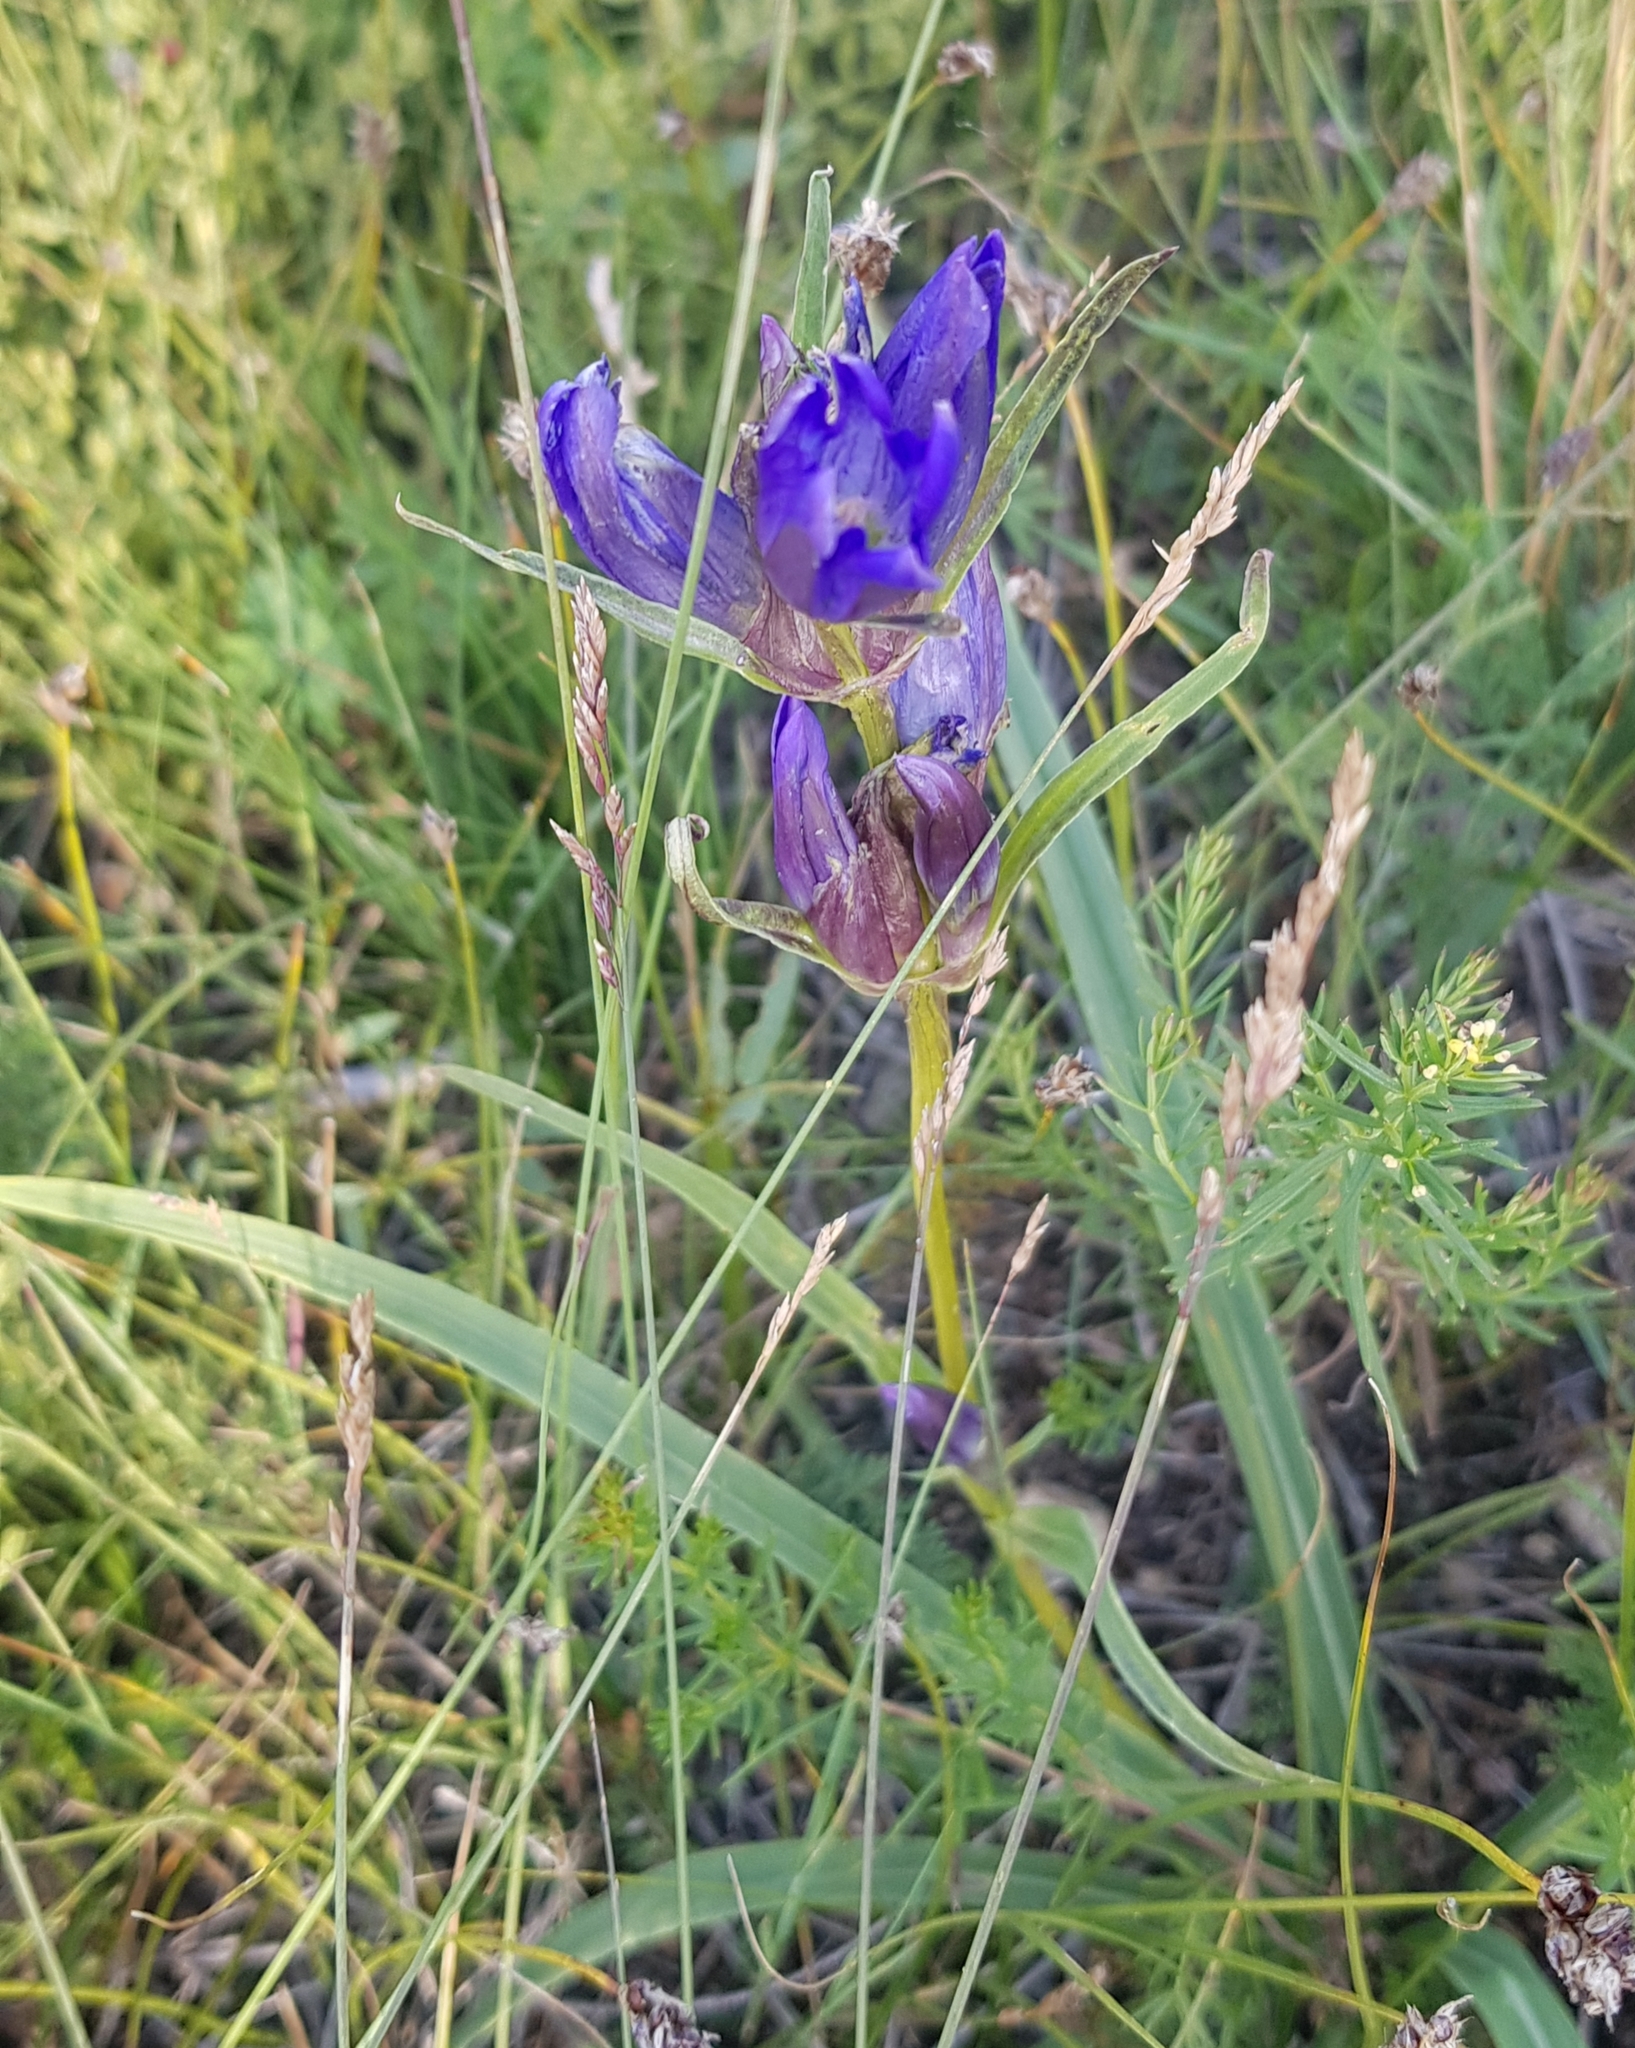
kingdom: Plantae
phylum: Tracheophyta
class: Magnoliopsida
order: Gentianales
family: Gentianaceae
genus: Gentiana
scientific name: Gentiana decumbens
